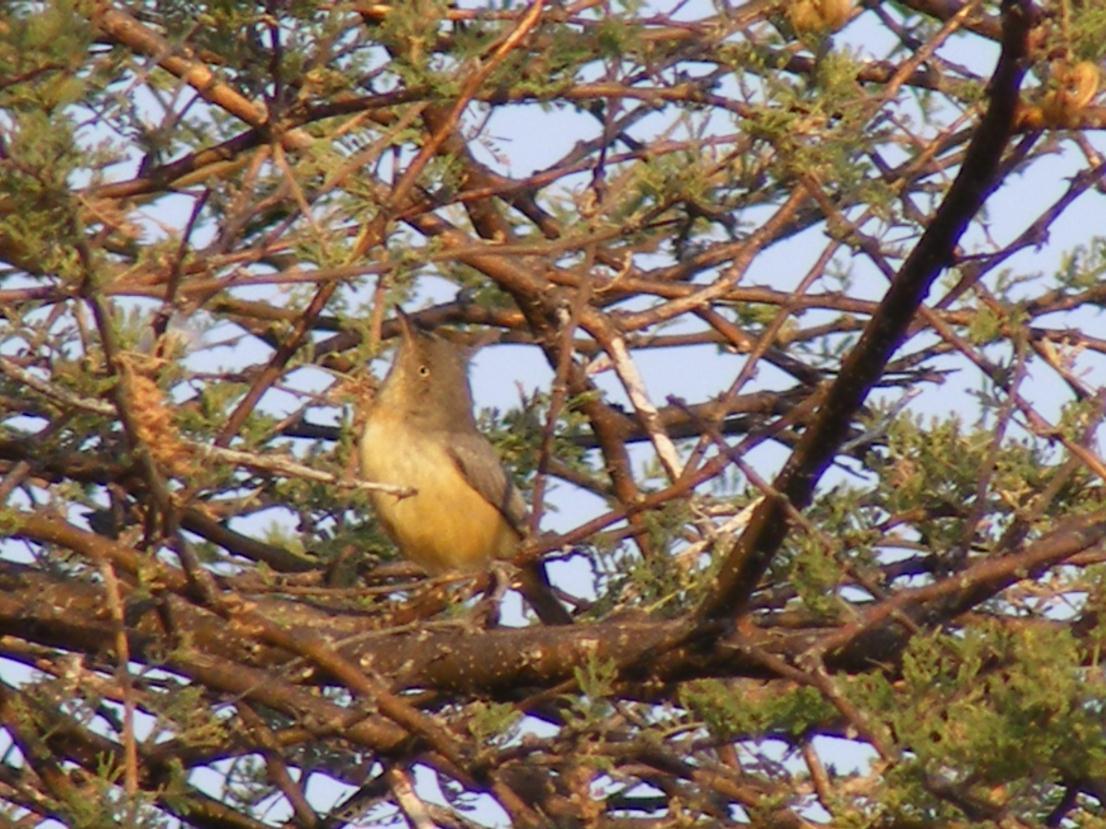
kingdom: Animalia
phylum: Chordata
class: Aves
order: Passeriformes
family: Cisticolidae
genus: Eremomela
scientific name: Eremomela usticollis
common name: Burnt-neck eremomela
